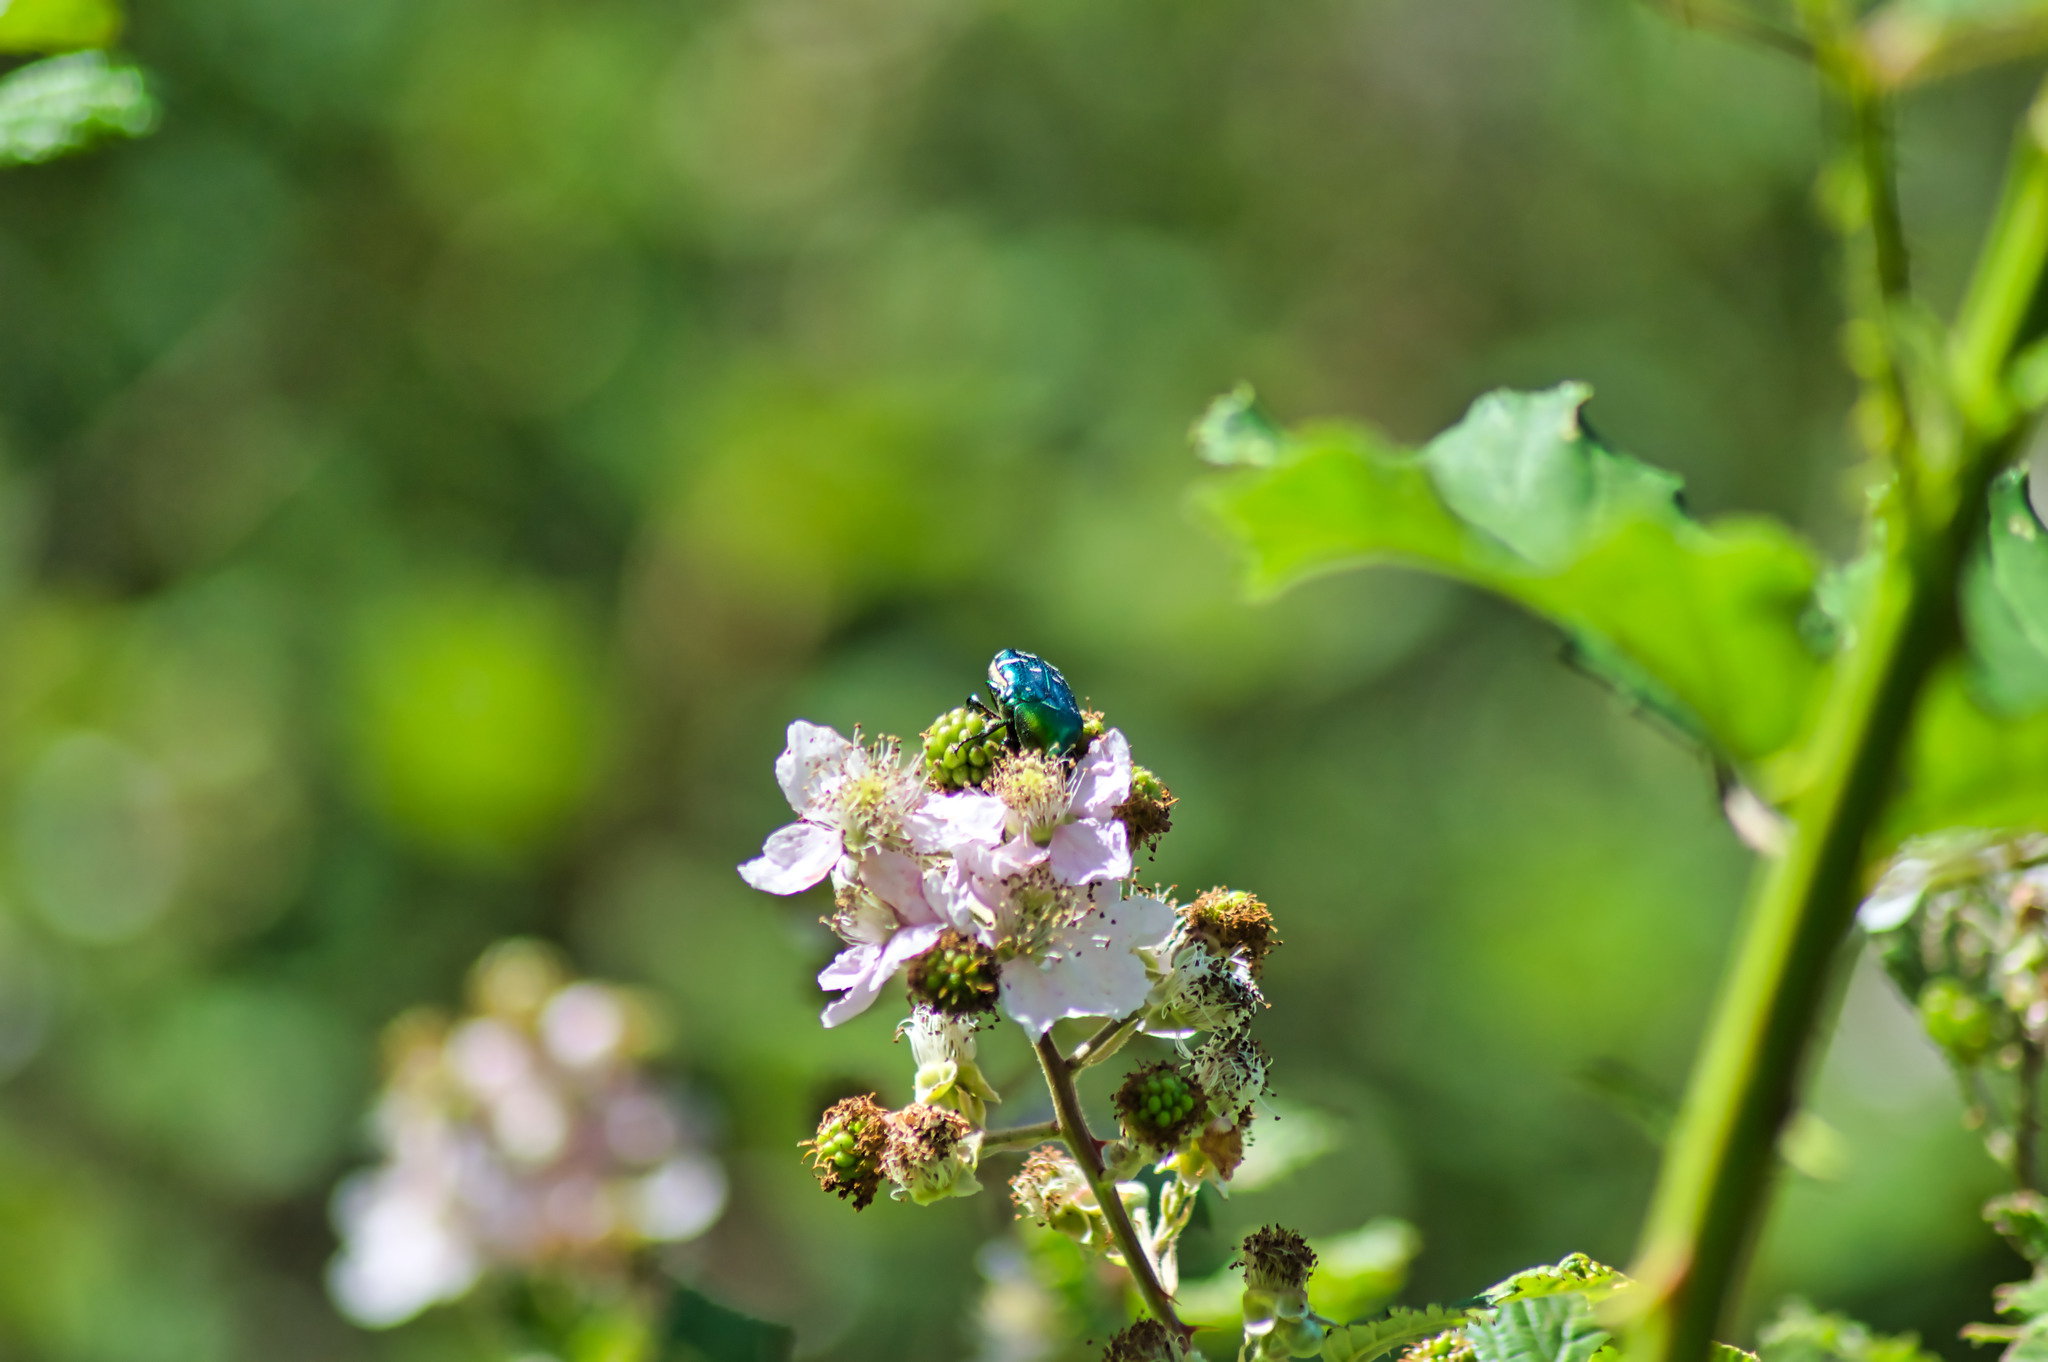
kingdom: Animalia
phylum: Arthropoda
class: Insecta
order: Coleoptera
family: Scarabaeidae
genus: Cetonia
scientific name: Cetonia aurata
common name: Rose chafer
